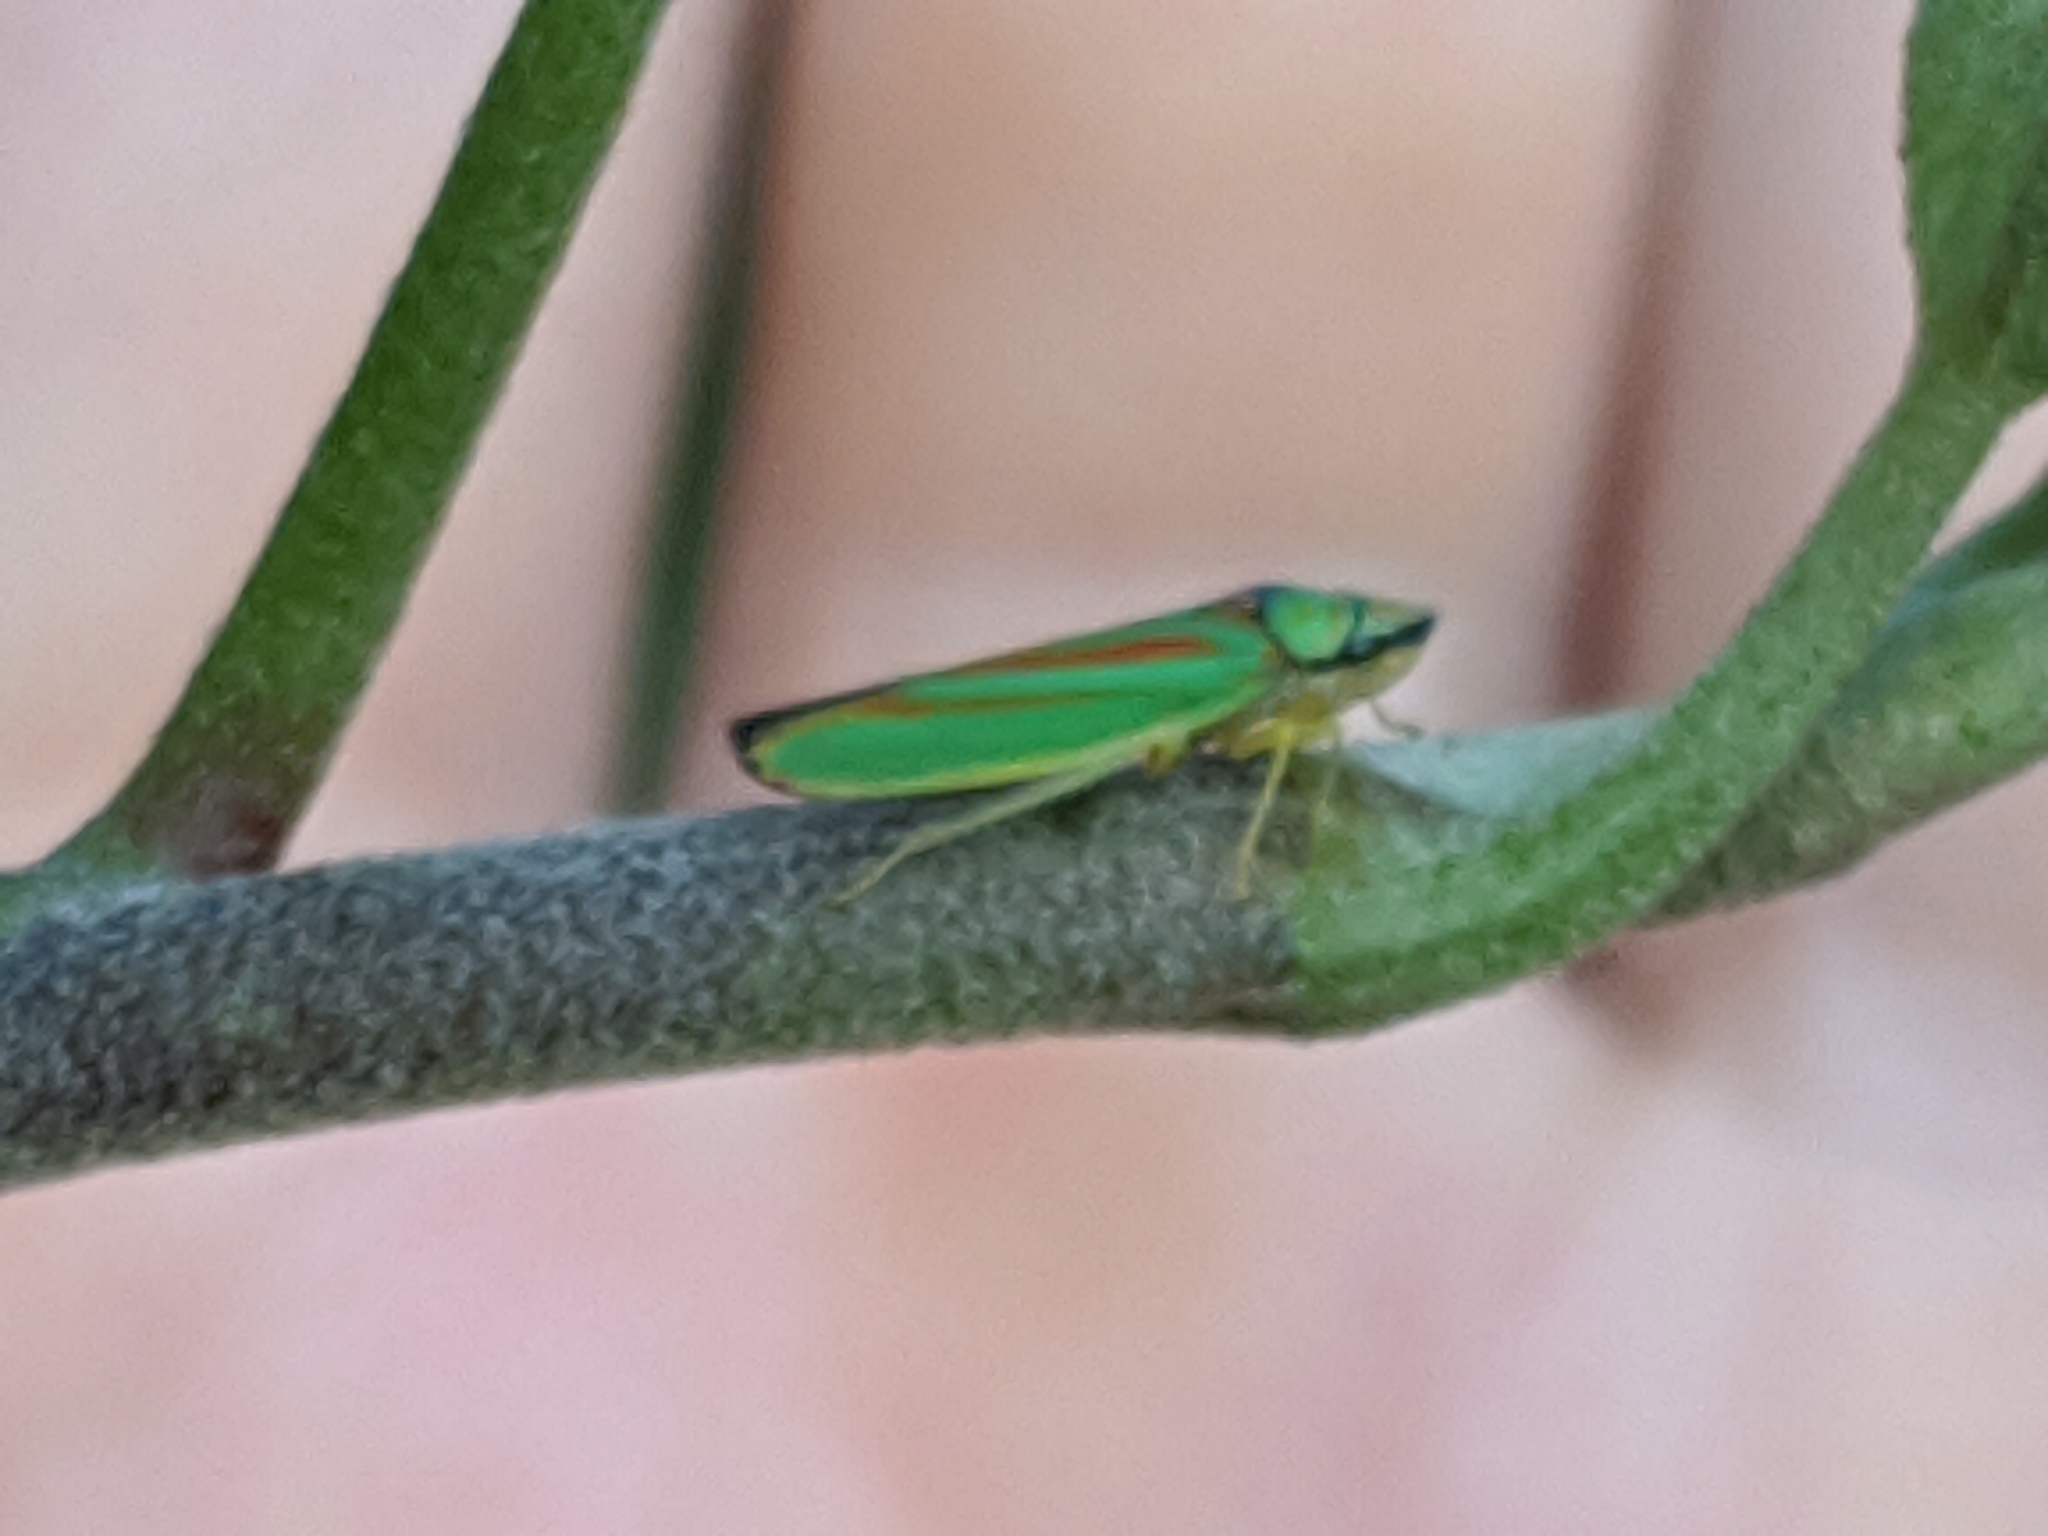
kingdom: Animalia
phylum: Arthropoda
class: Insecta
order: Hemiptera
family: Cicadellidae
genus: Graphocephala
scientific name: Graphocephala fennahi
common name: Rhododendron leafhopper
